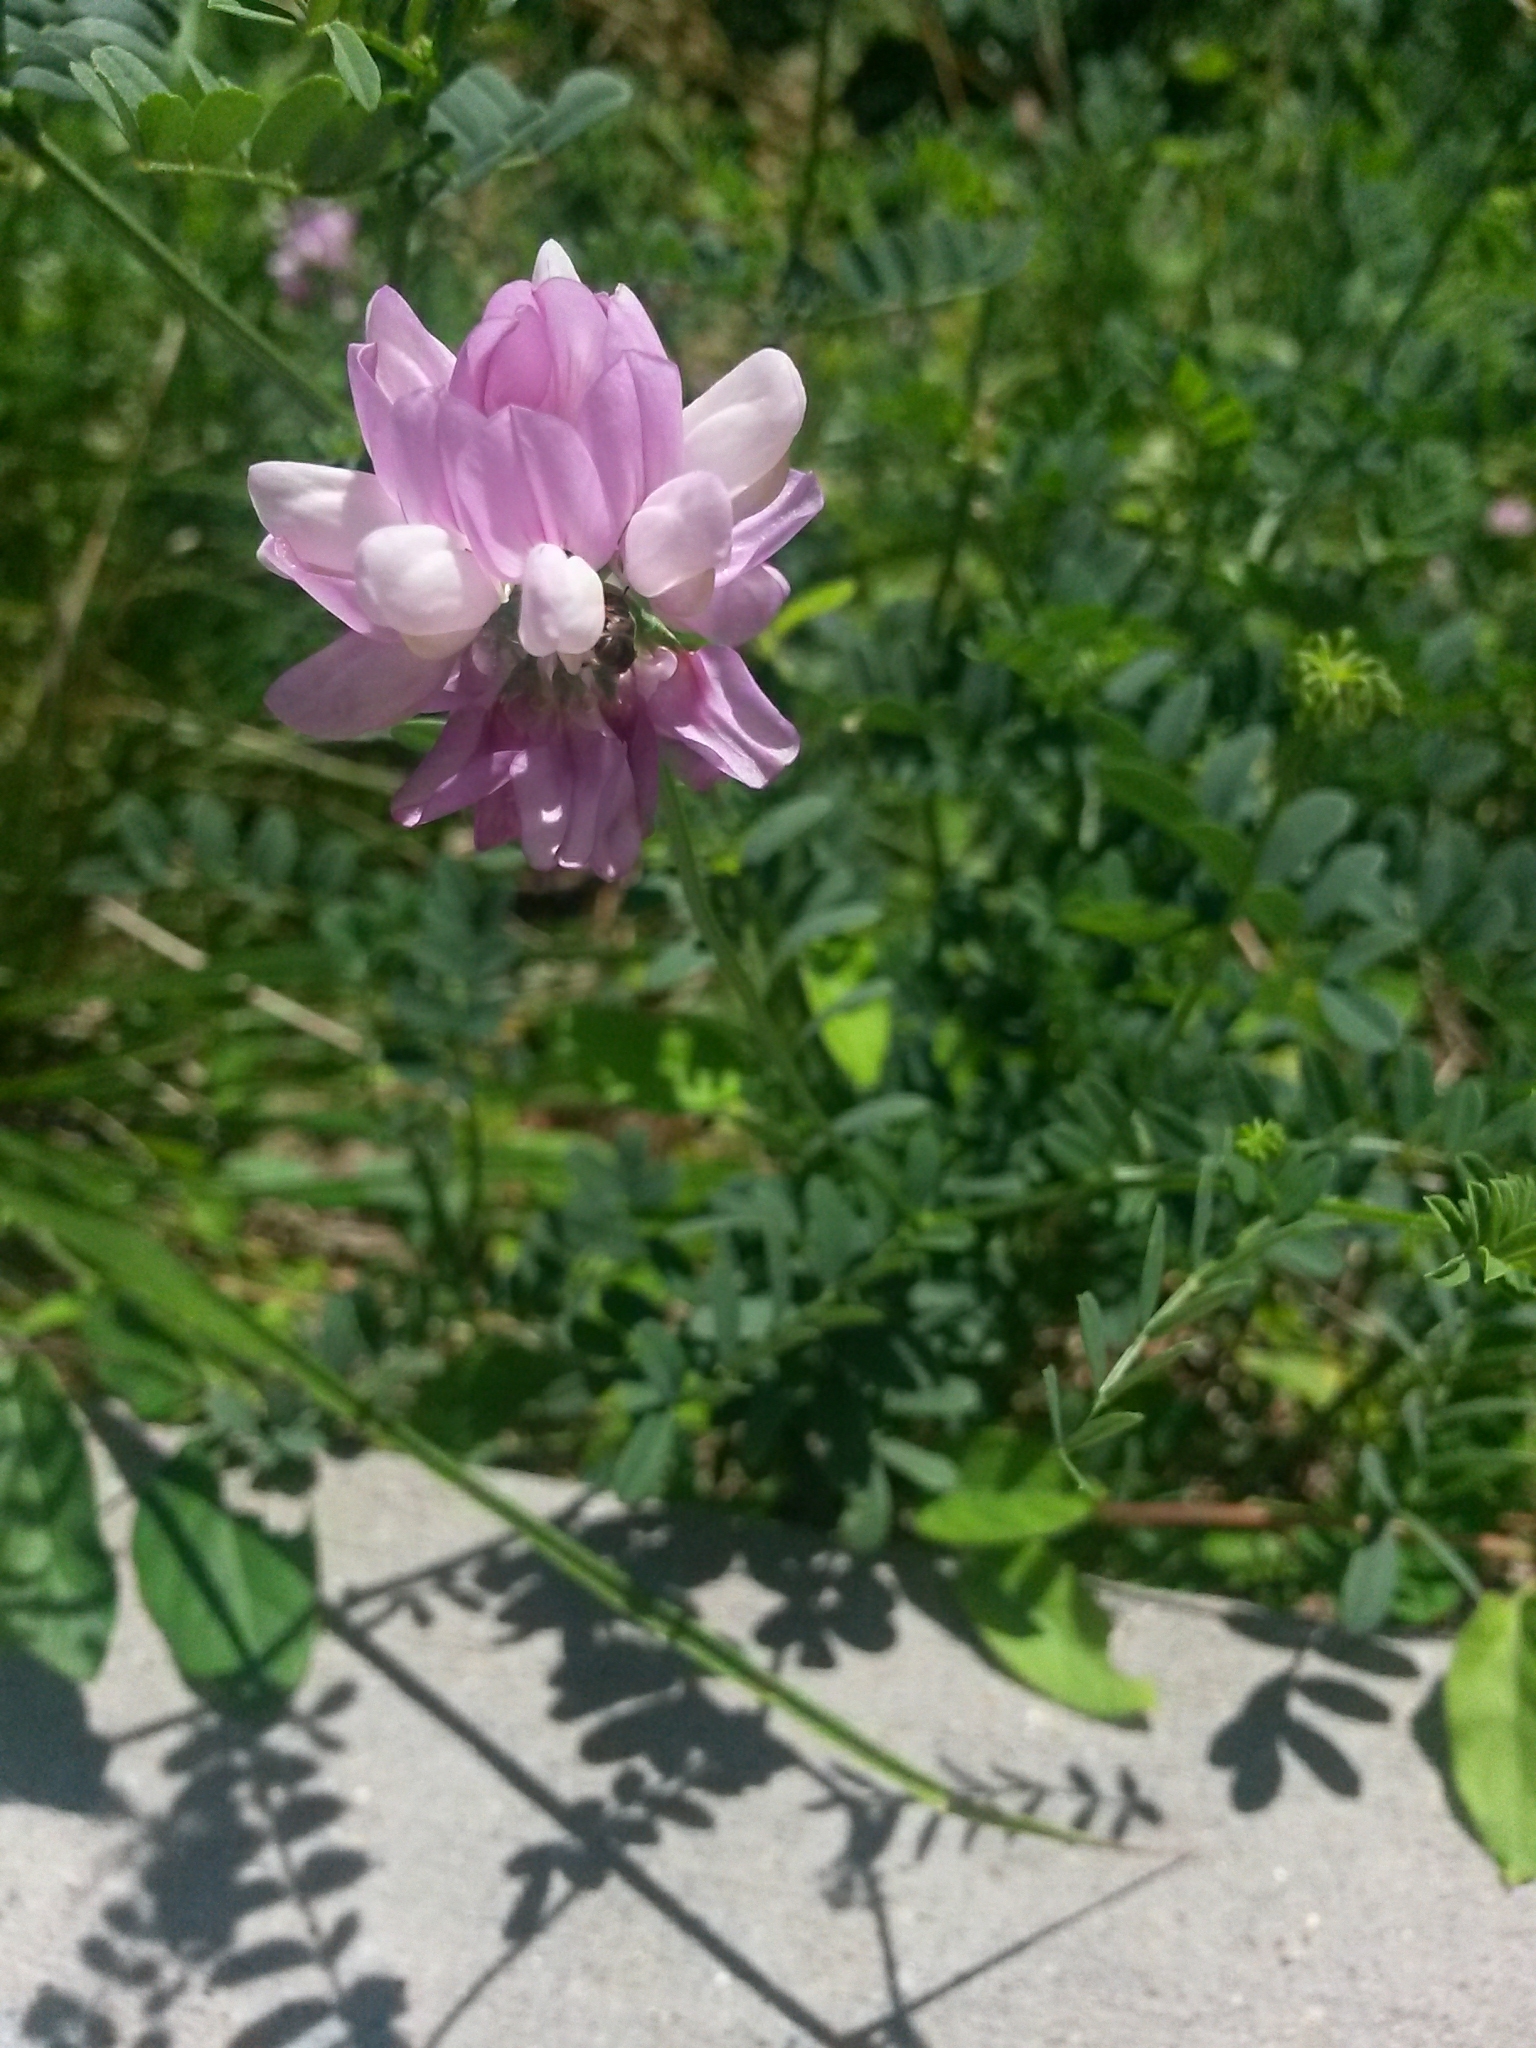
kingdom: Plantae
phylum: Tracheophyta
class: Magnoliopsida
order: Fabales
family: Fabaceae
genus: Coronilla
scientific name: Coronilla varia
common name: Crownvetch
